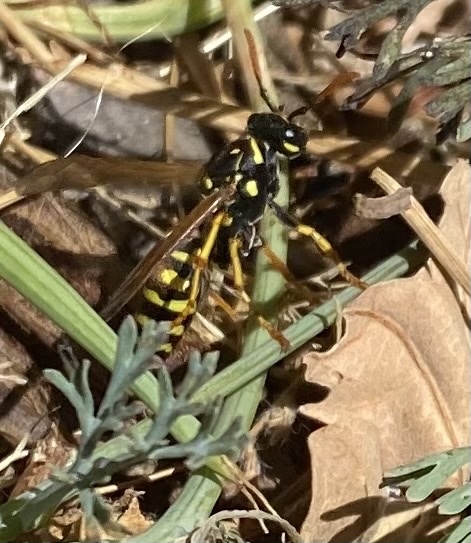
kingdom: Animalia
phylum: Arthropoda
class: Insecta
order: Hymenoptera
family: Eumenidae
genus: Polistes
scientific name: Polistes dominula
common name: Paper wasp
